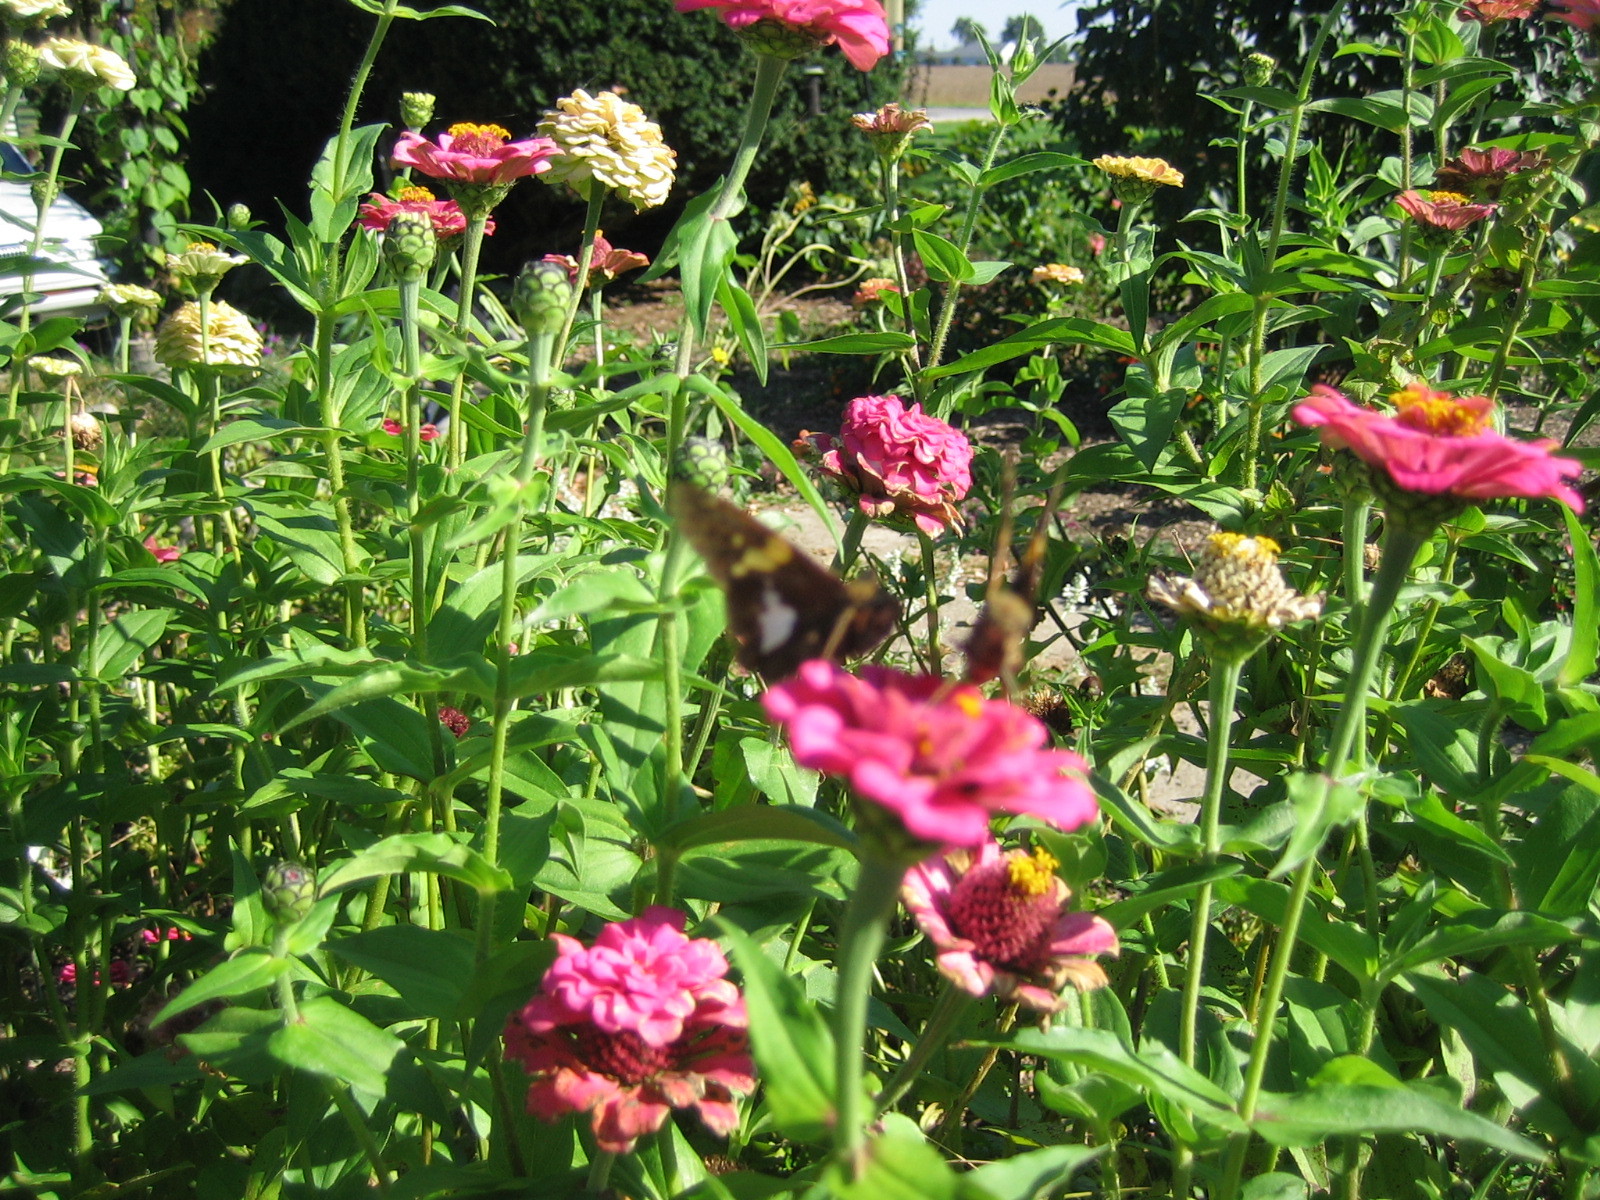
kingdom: Animalia
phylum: Arthropoda
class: Insecta
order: Lepidoptera
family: Hesperiidae
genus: Epargyreus
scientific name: Epargyreus clarus
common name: Silver-spotted skipper
